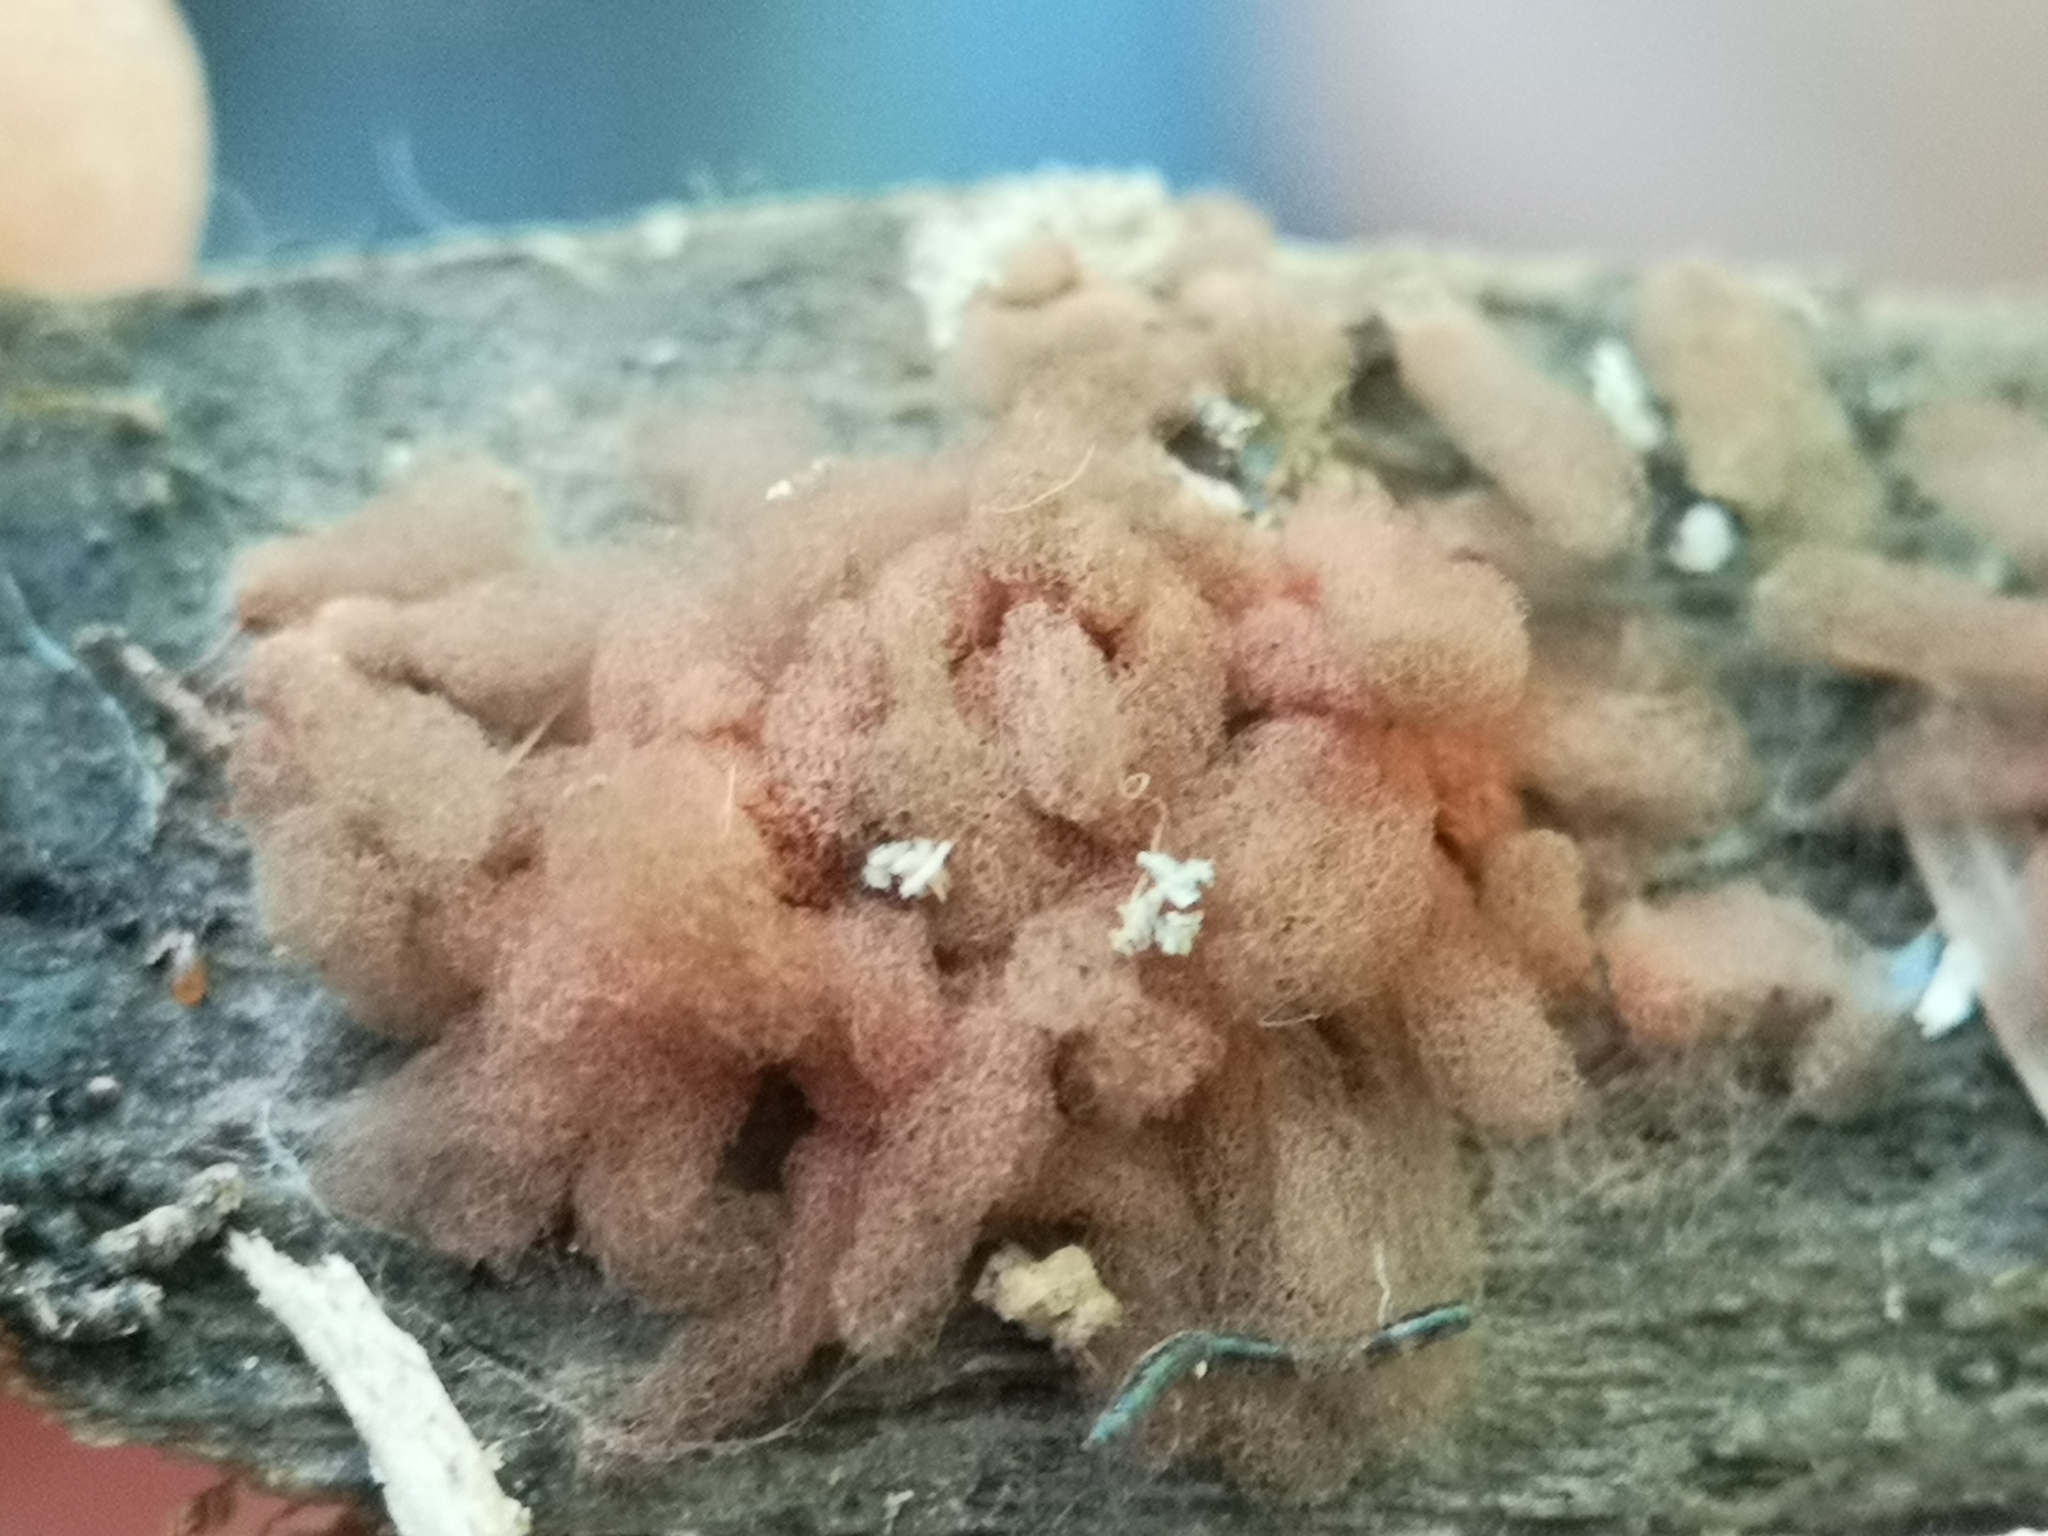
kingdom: Protozoa
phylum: Mycetozoa
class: Myxomycetes
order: Trichiales
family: Arcyriaceae
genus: Arcyria
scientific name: Arcyria denudata
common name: Carnival candy slime mold
